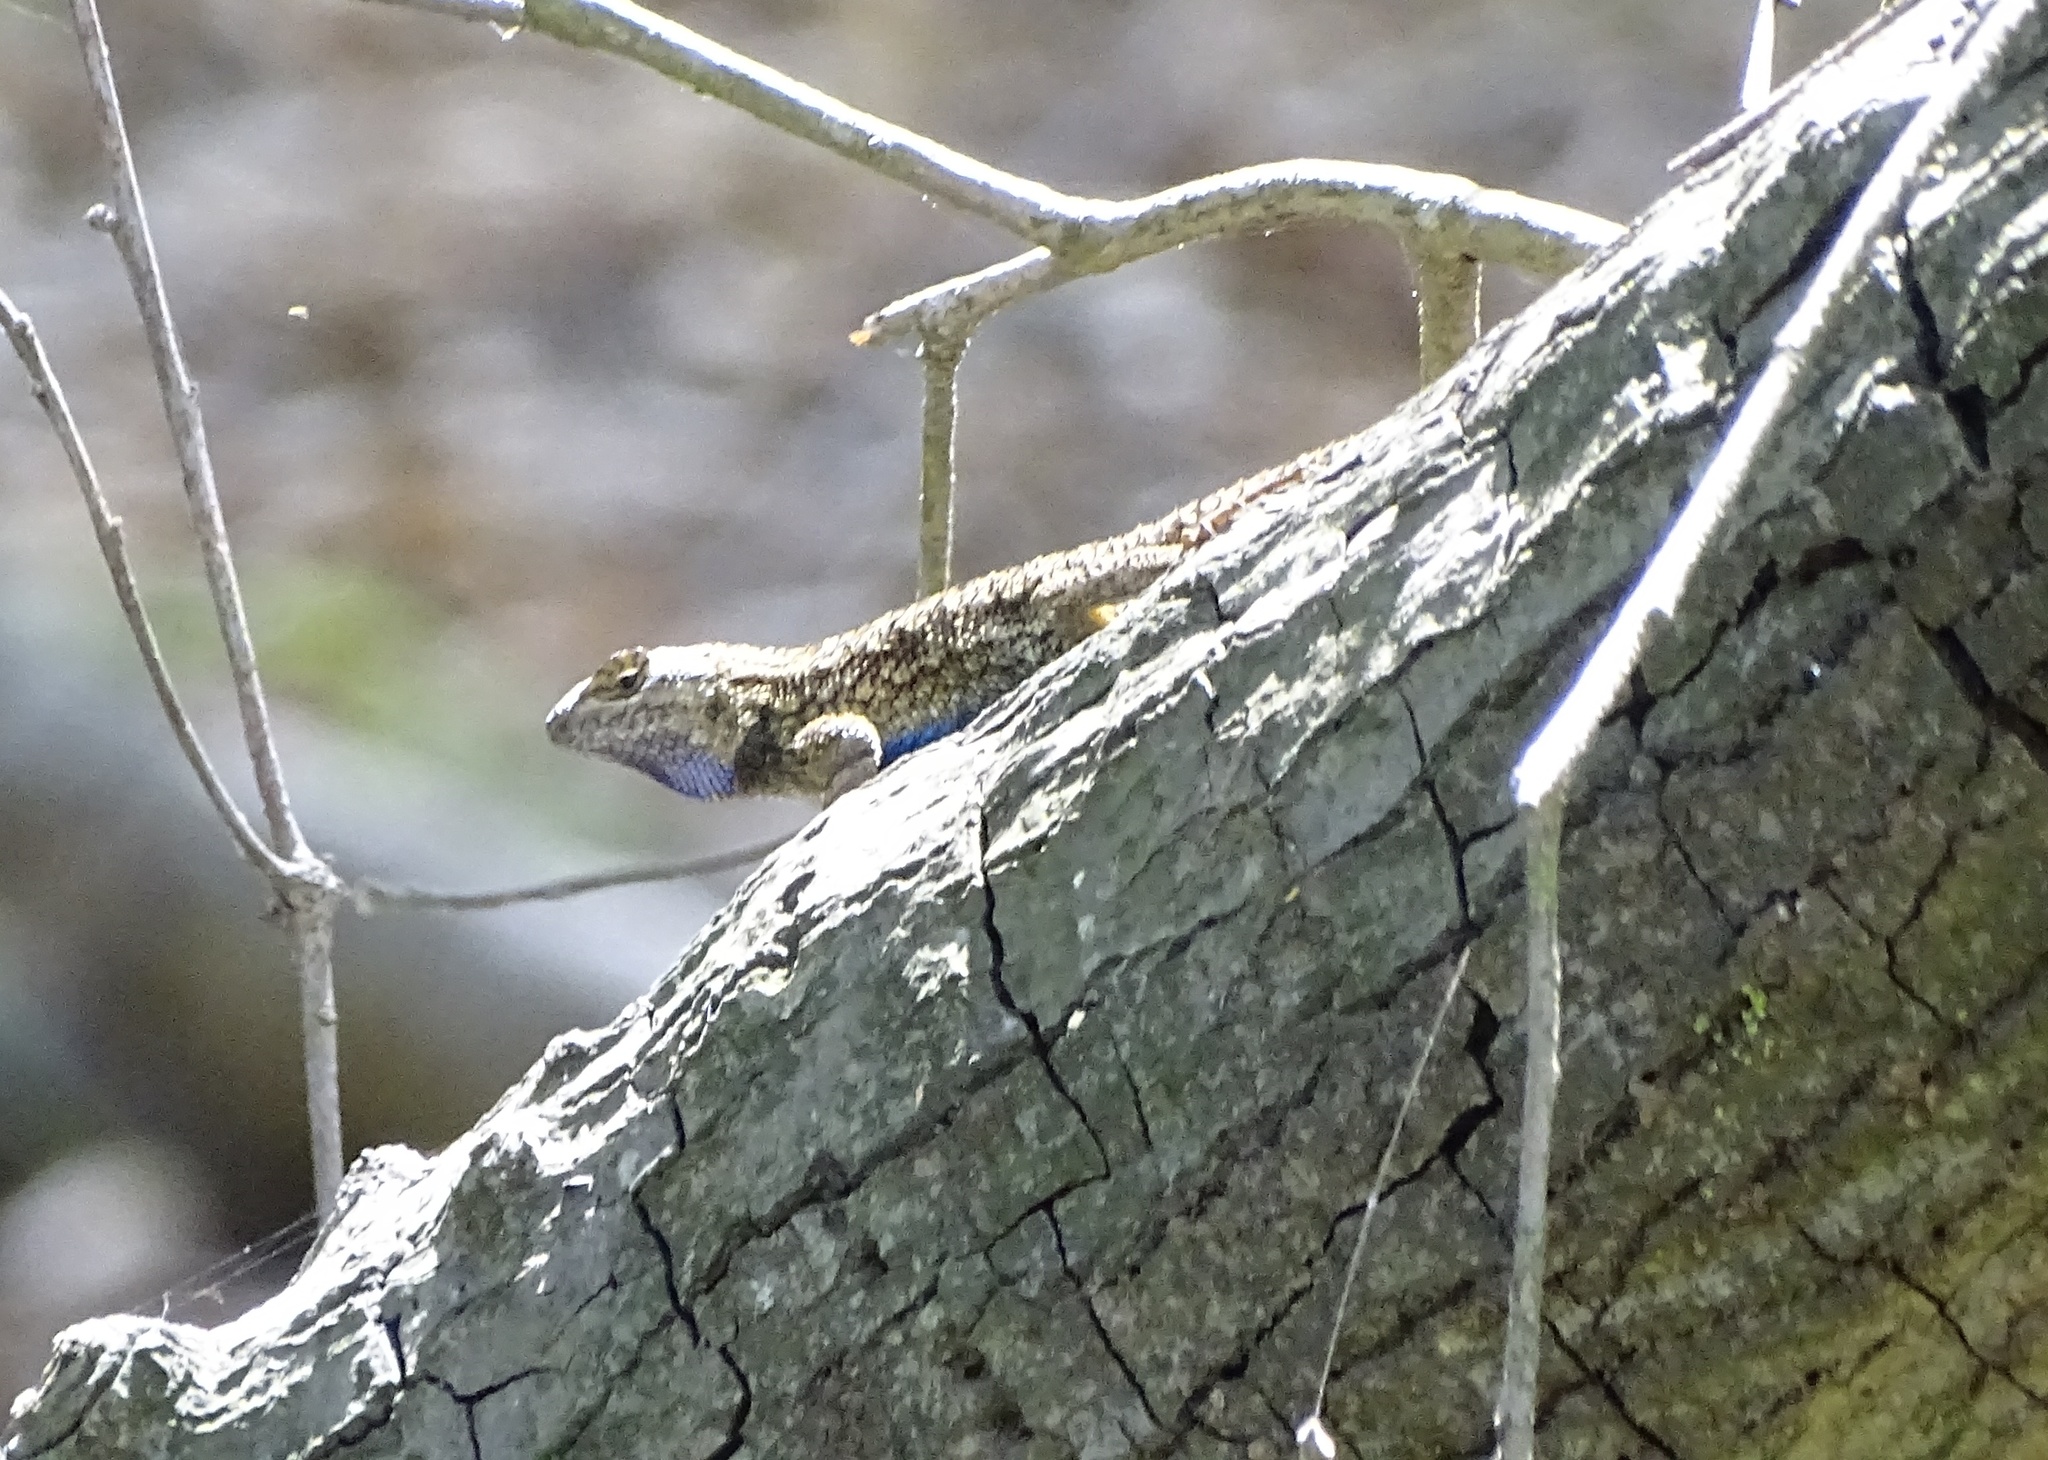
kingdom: Animalia
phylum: Chordata
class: Squamata
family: Phrynosomatidae
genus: Sceloporus
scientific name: Sceloporus occidentalis
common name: Western fence lizard
